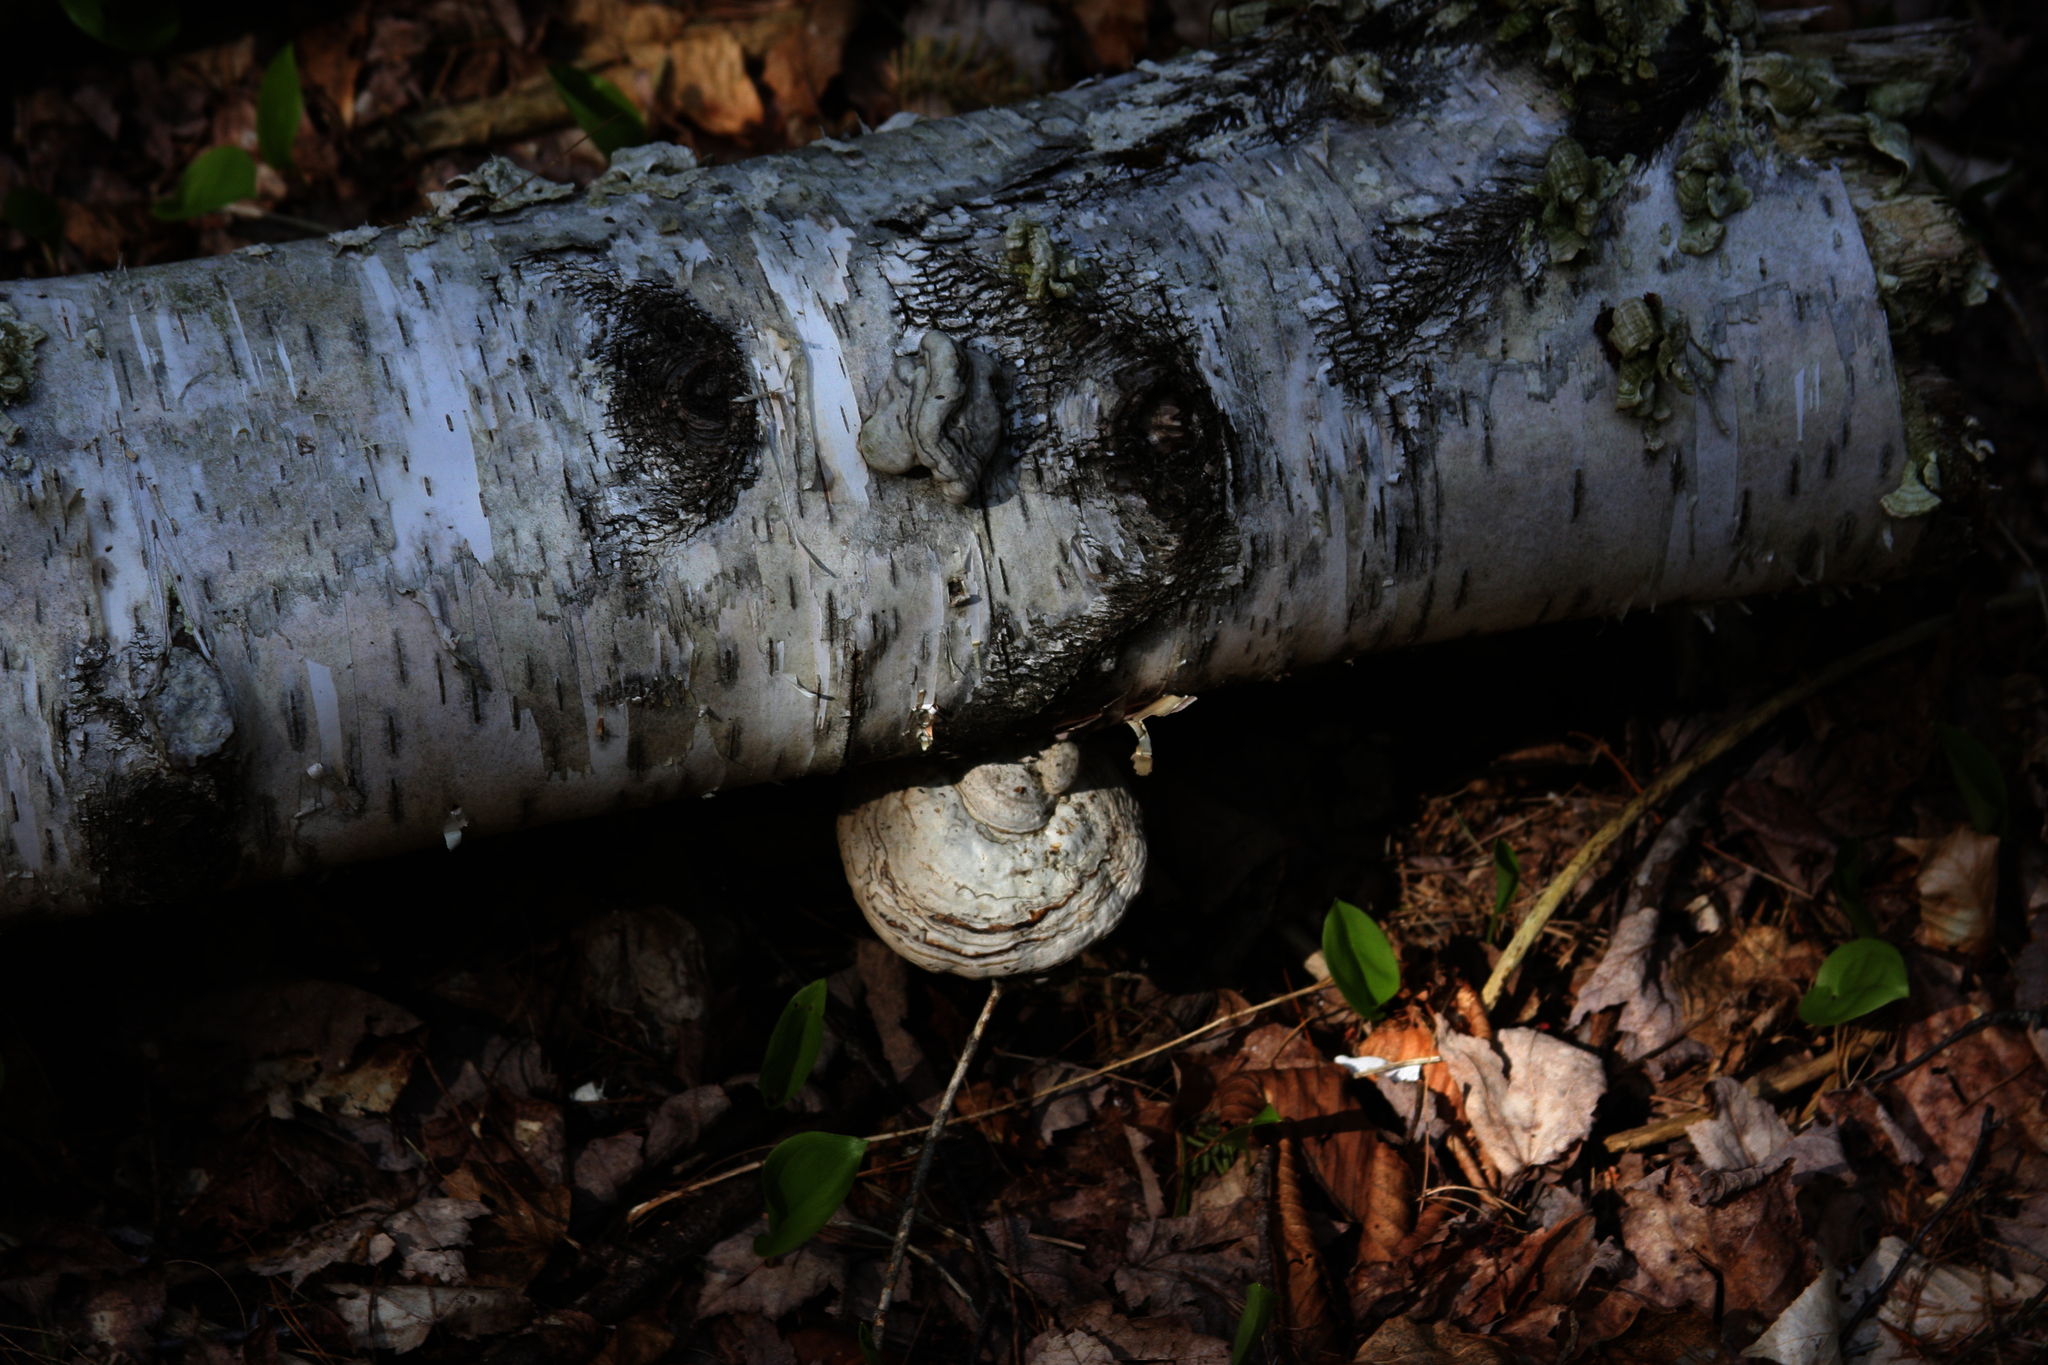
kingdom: Fungi
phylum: Basidiomycota
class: Agaricomycetes
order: Polyporales
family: Polyporaceae
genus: Fomes
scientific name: Fomes fomentarius
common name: Hoof fungus
